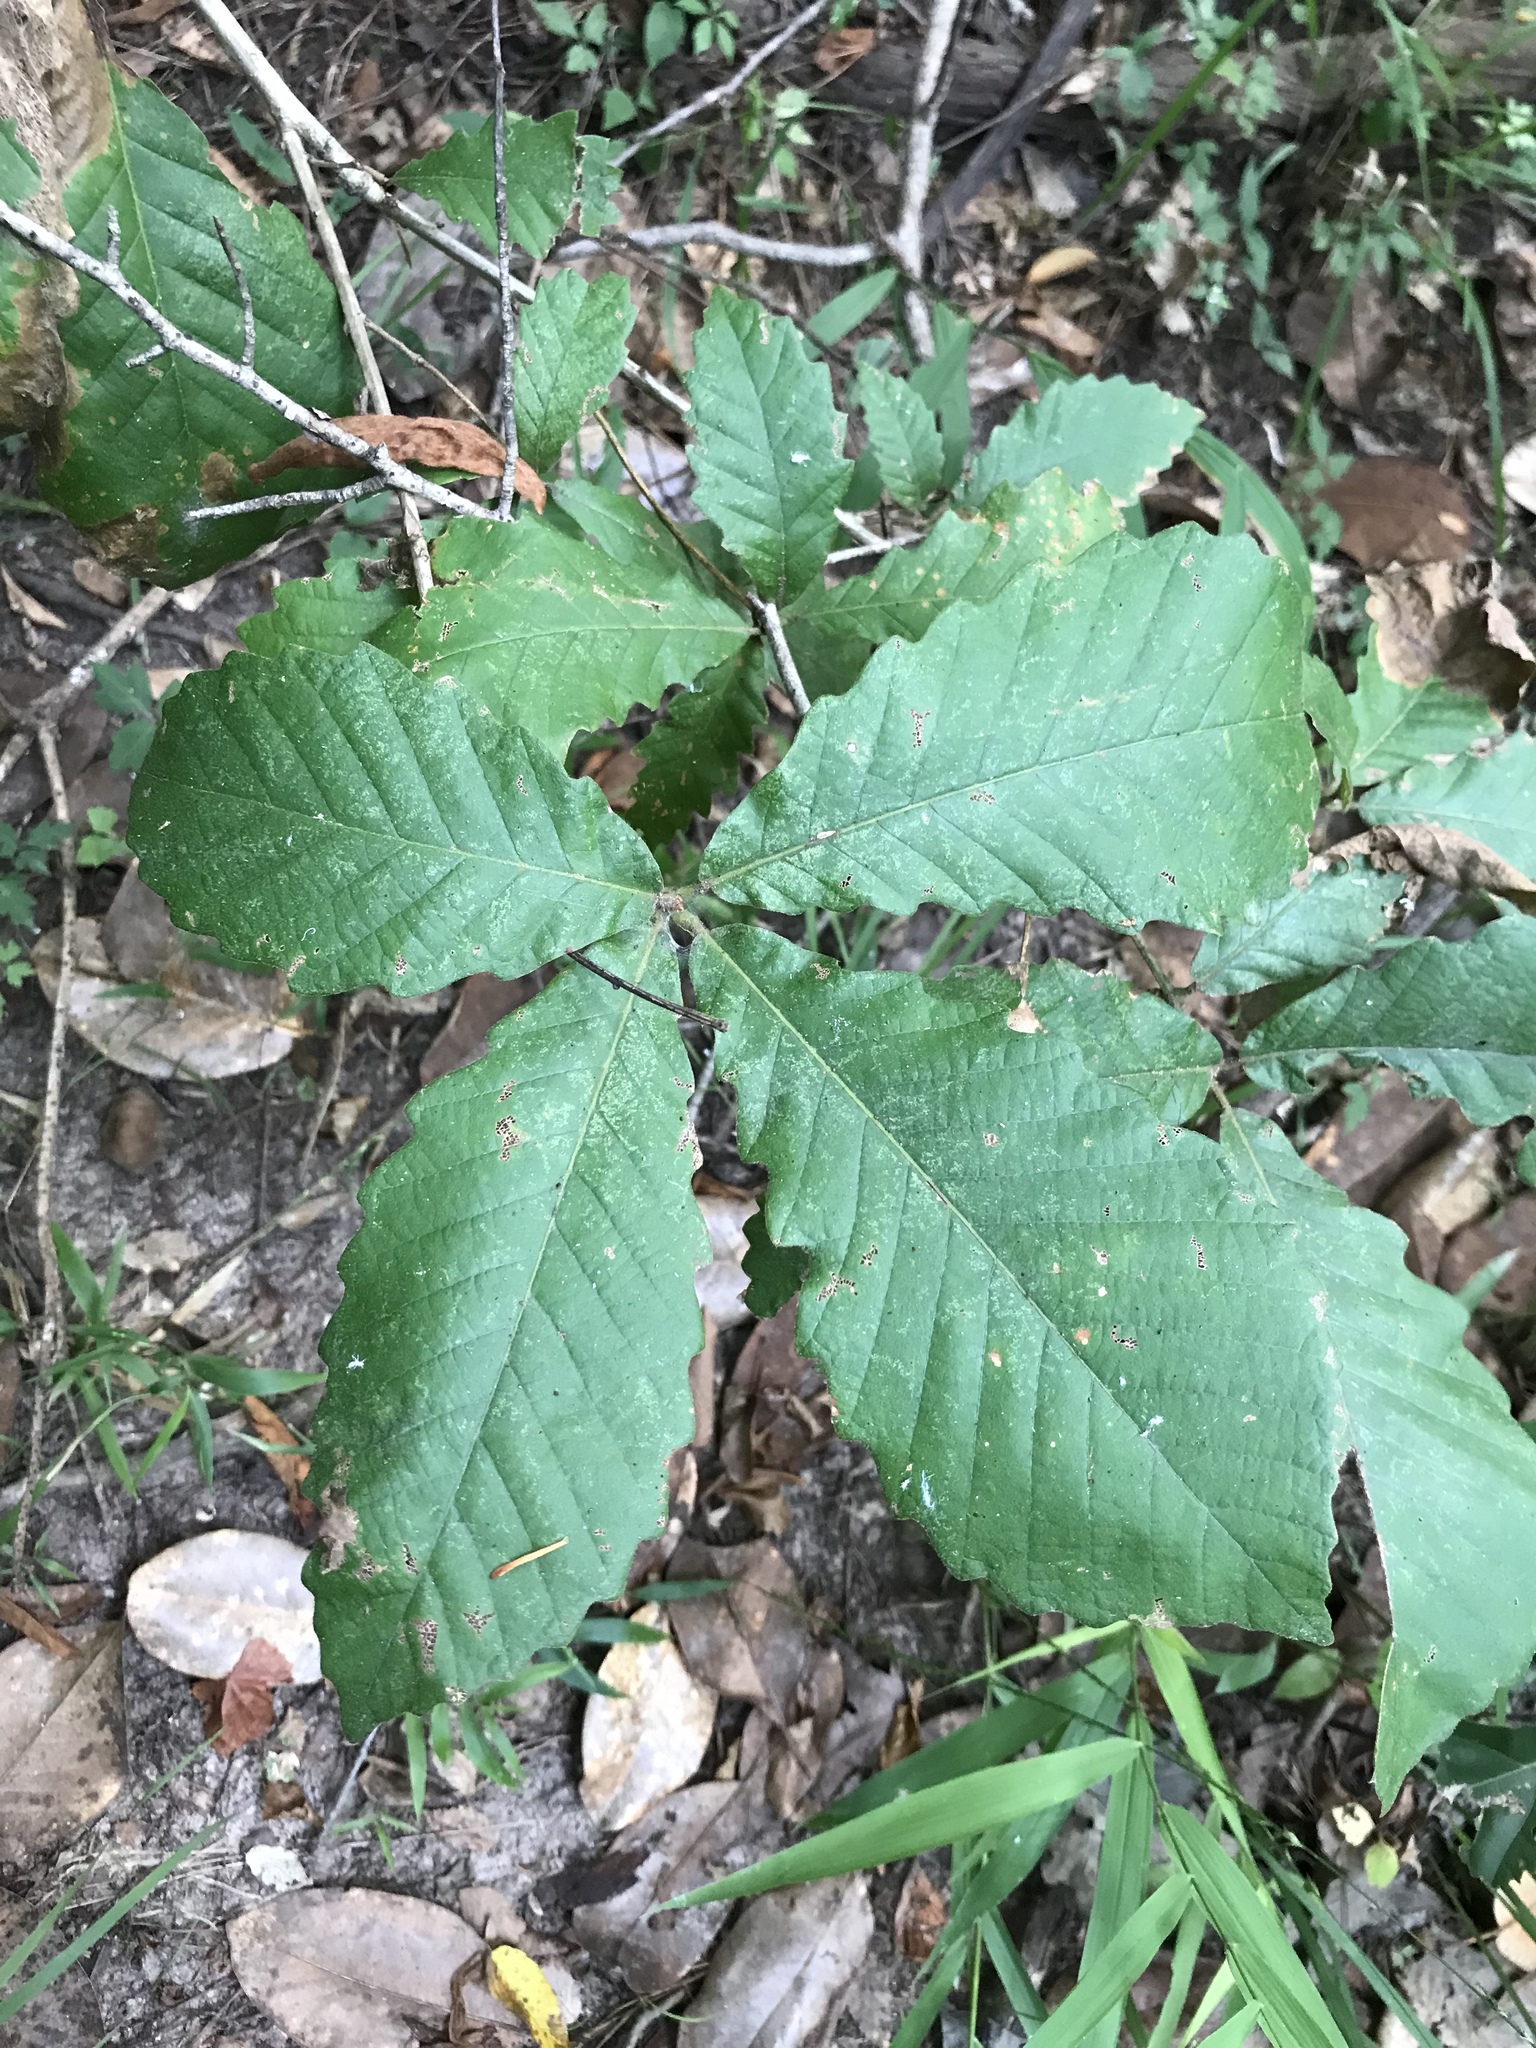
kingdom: Plantae
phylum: Tracheophyta
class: Magnoliopsida
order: Fagales
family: Fagaceae
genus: Quercus
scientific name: Quercus michauxii
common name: Swamp chestnut oak
